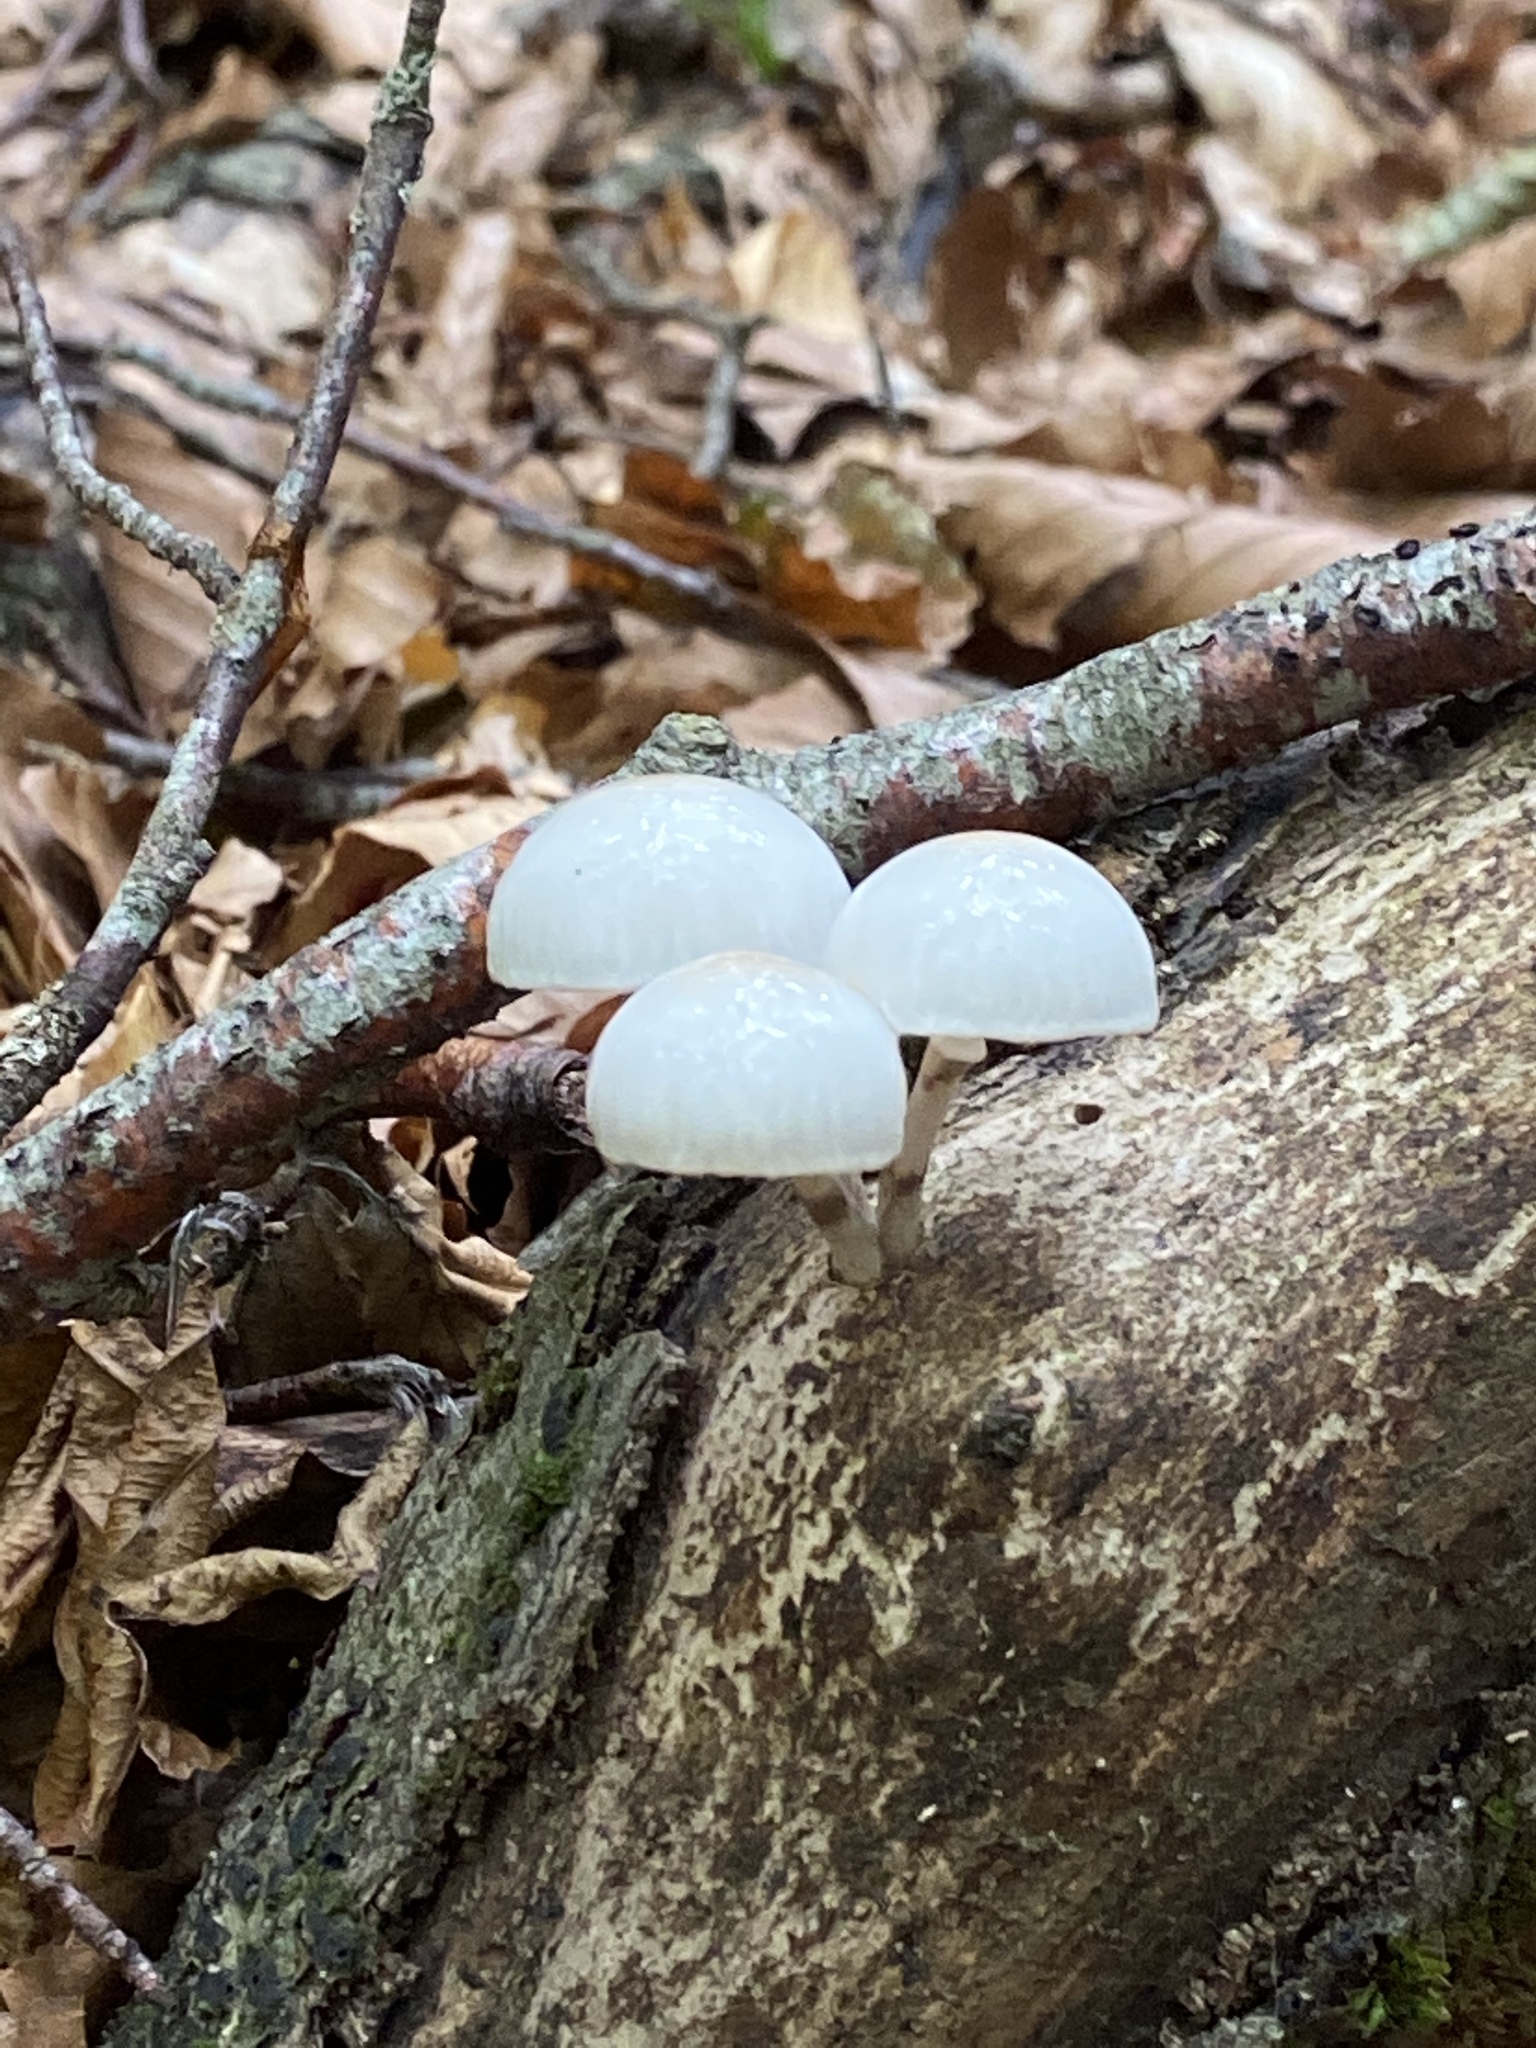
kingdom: Fungi
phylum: Basidiomycota
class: Agaricomycetes
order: Agaricales
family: Physalacriaceae
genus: Mucidula
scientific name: Mucidula mucida
